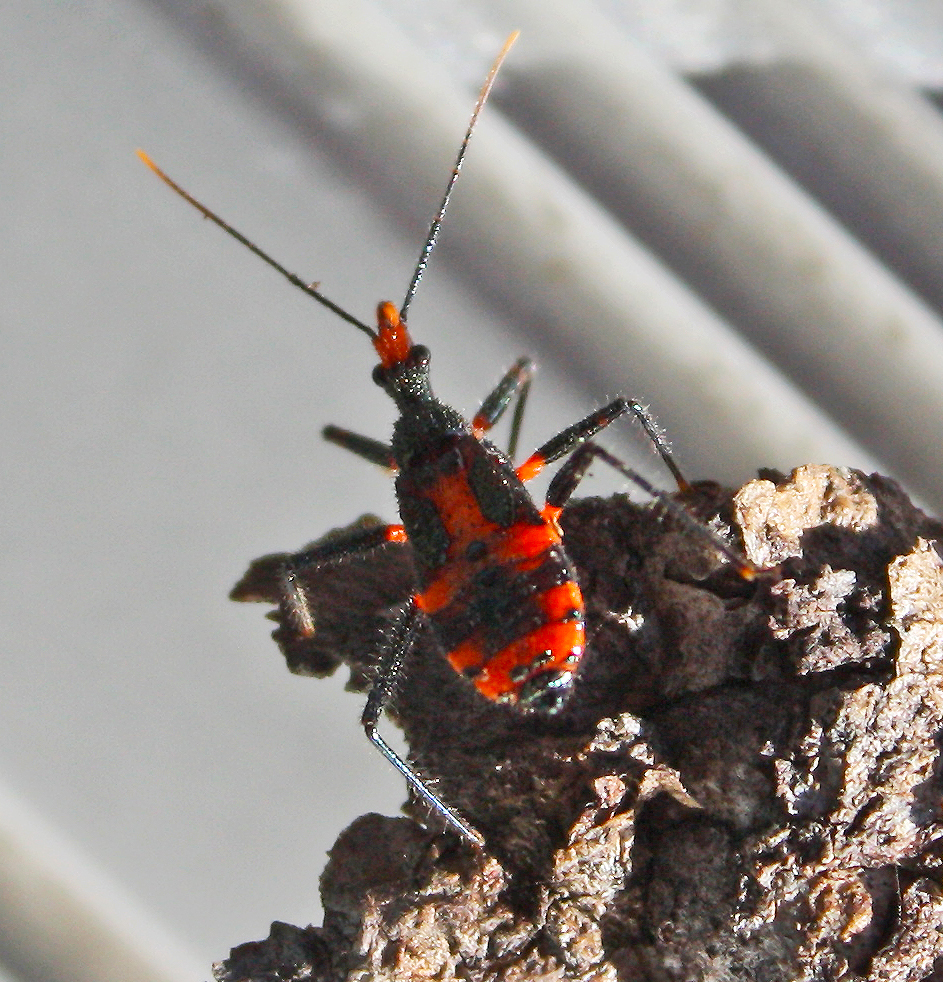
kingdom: Animalia
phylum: Arthropoda
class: Insecta
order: Hemiptera
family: Reduviidae
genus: Havinthus
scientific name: Havinthus rufovarius
